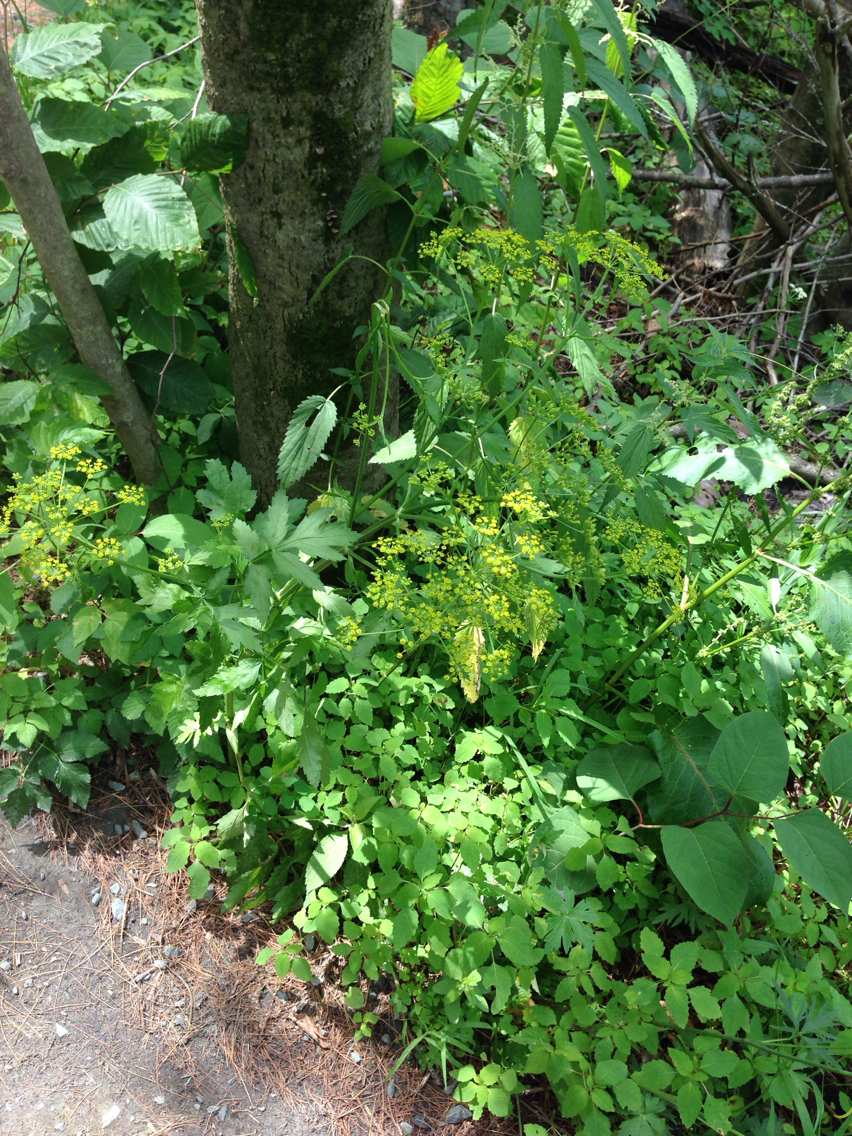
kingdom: Plantae
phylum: Tracheophyta
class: Magnoliopsida
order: Apiales
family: Apiaceae
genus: Pastinaca
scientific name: Pastinaca sativa
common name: Wild parsnip
